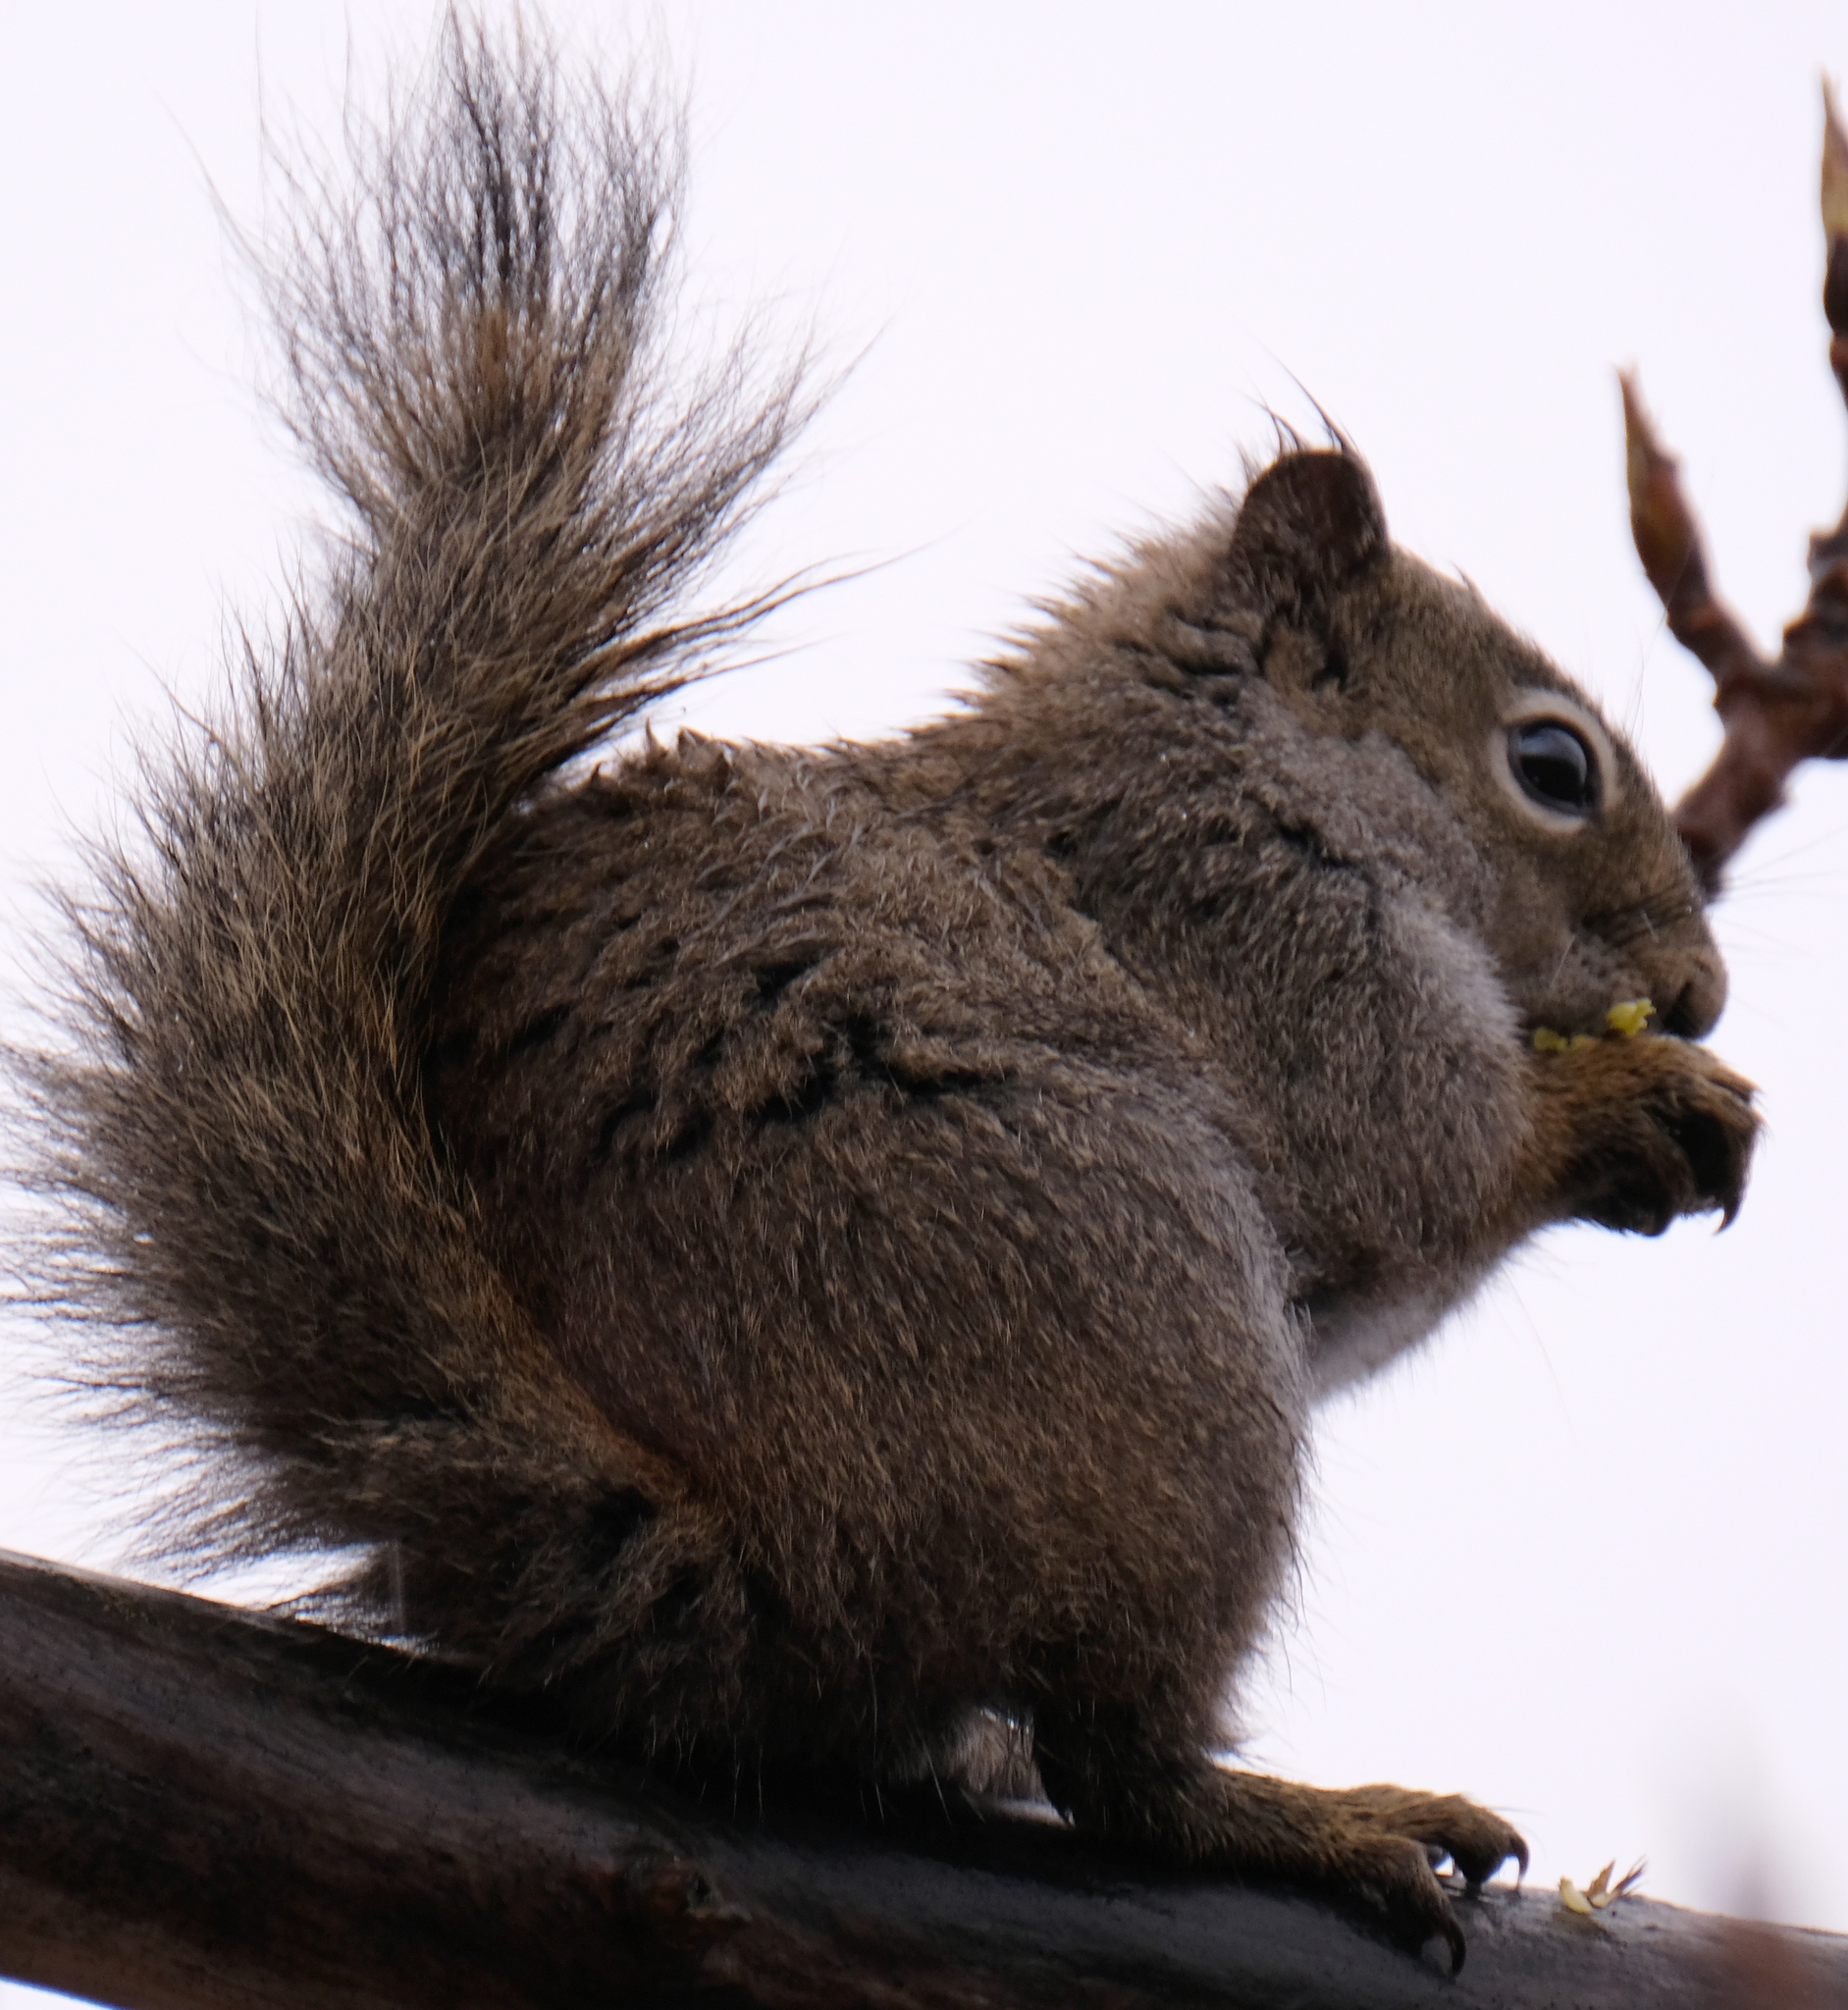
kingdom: Animalia
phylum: Chordata
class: Mammalia
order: Rodentia
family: Sciuridae
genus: Tamiasciurus
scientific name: Tamiasciurus hudsonicus
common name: Red squirrel
